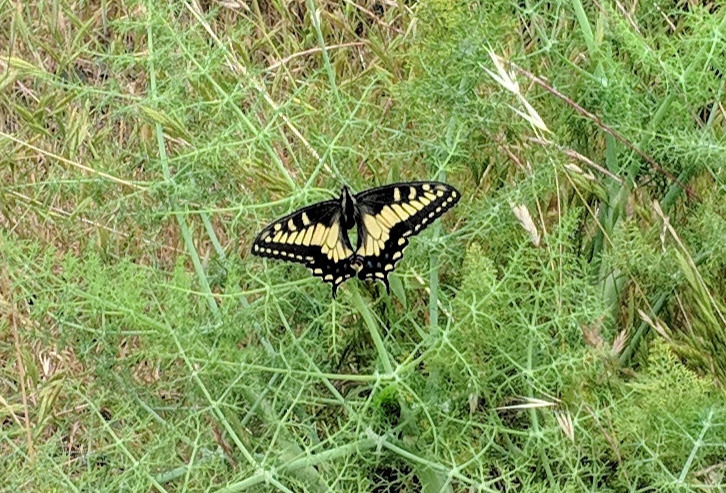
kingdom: Animalia
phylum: Arthropoda
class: Insecta
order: Lepidoptera
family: Papilionidae
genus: Papilio
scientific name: Papilio zelicaon
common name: Anise swallowtail
